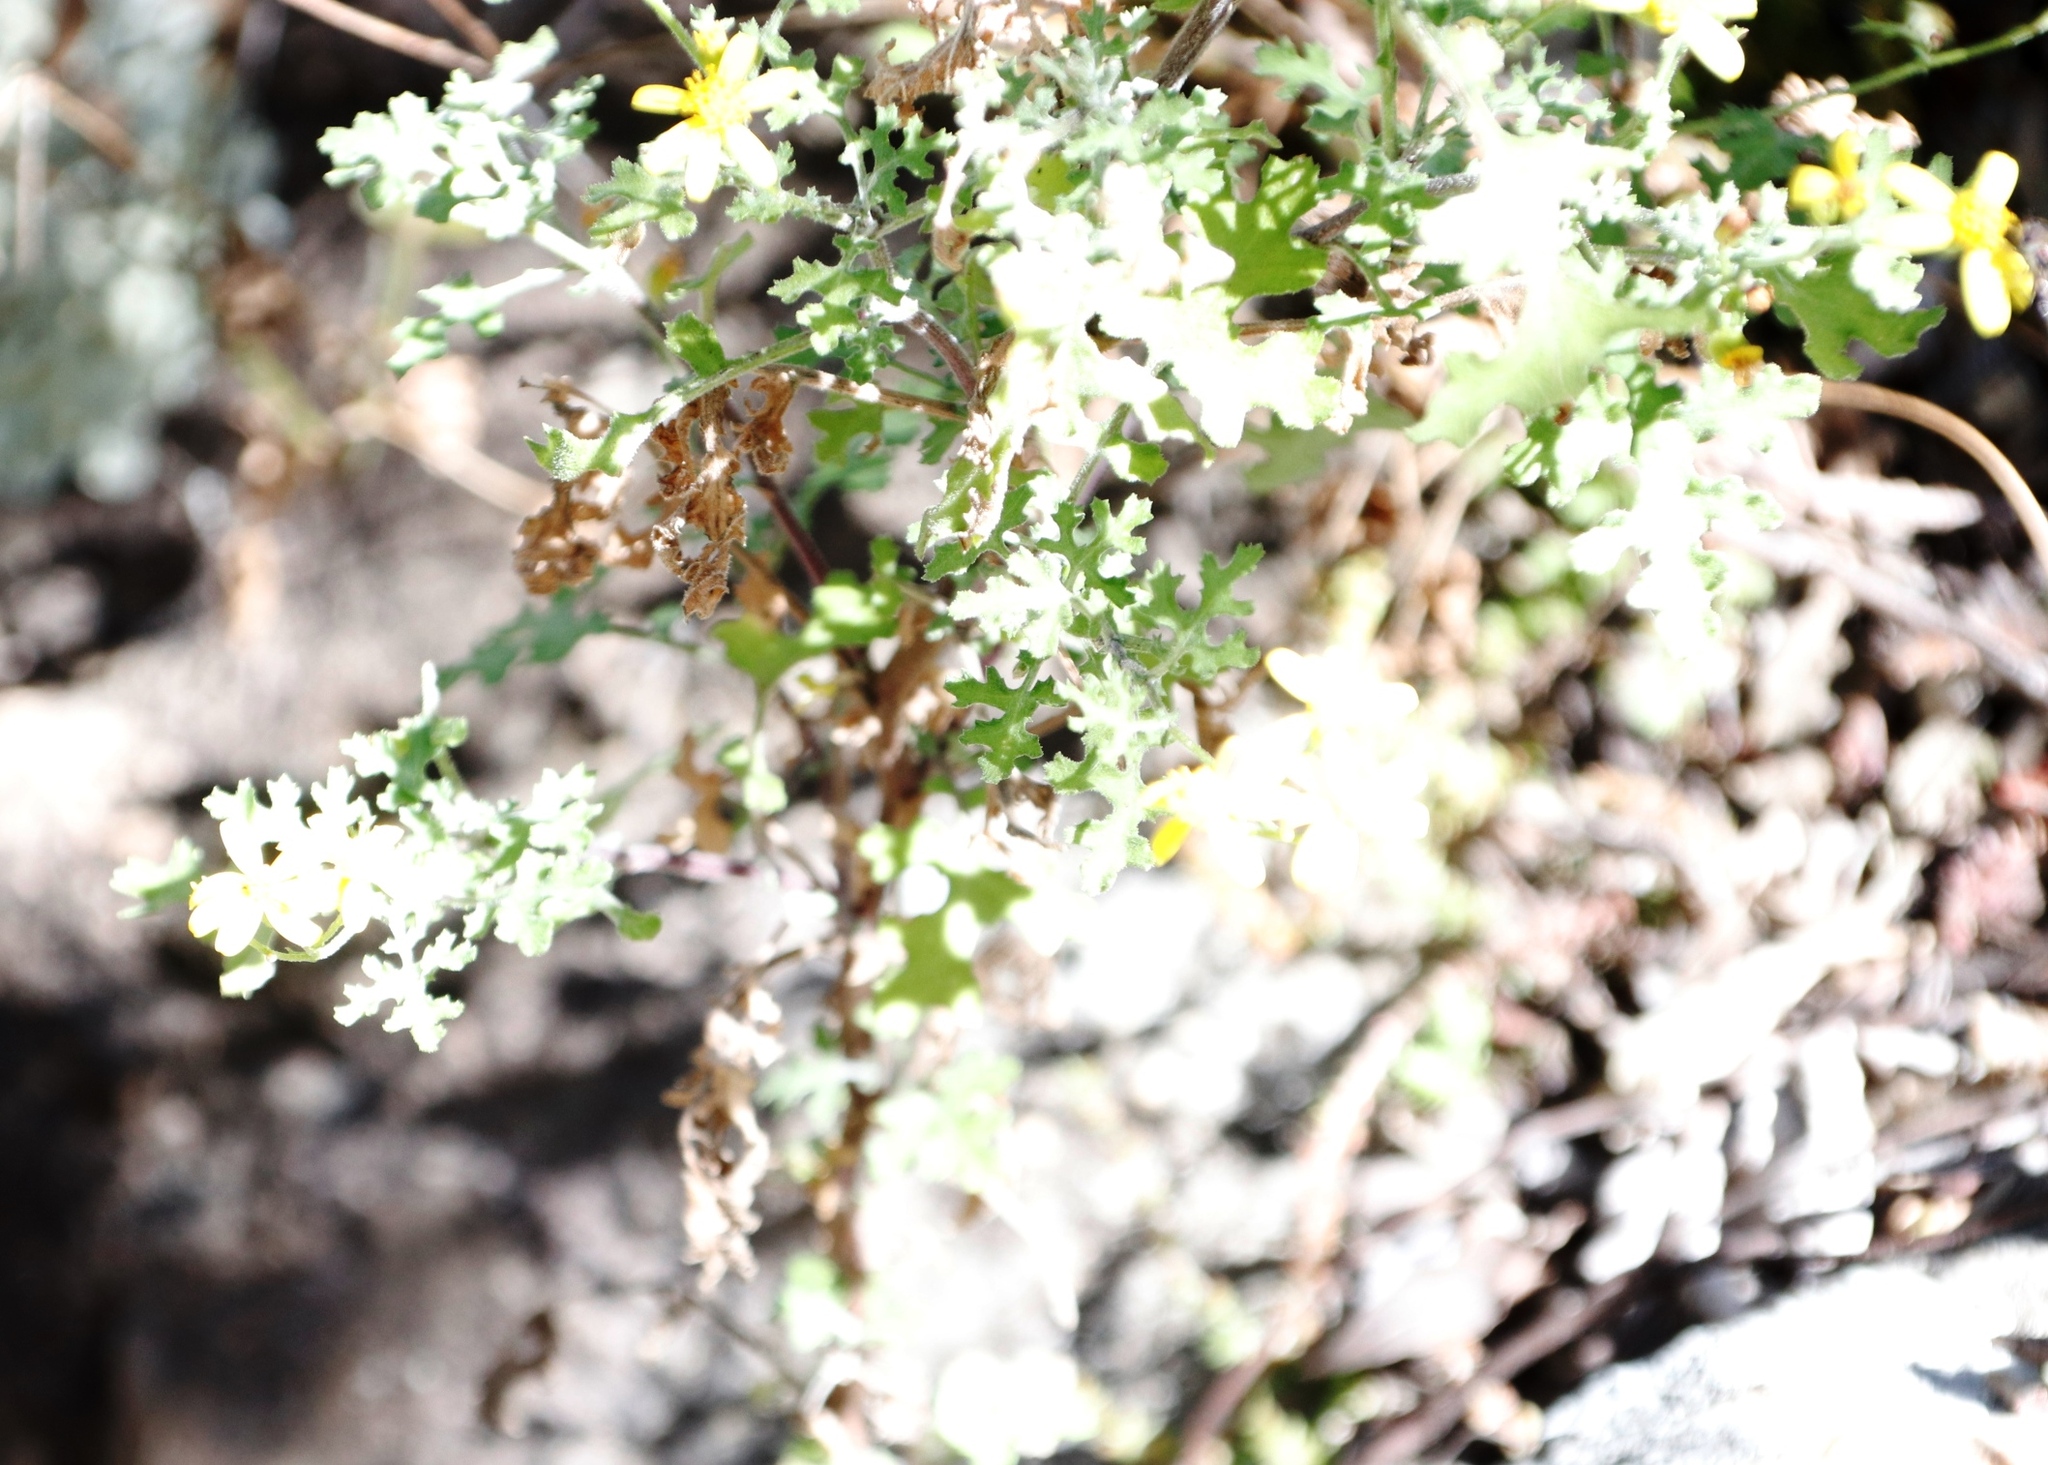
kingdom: Plantae
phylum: Tracheophyta
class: Magnoliopsida
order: Asterales
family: Asteraceae
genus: Cineraria
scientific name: Cineraria lyratiformis
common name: Cineraria
